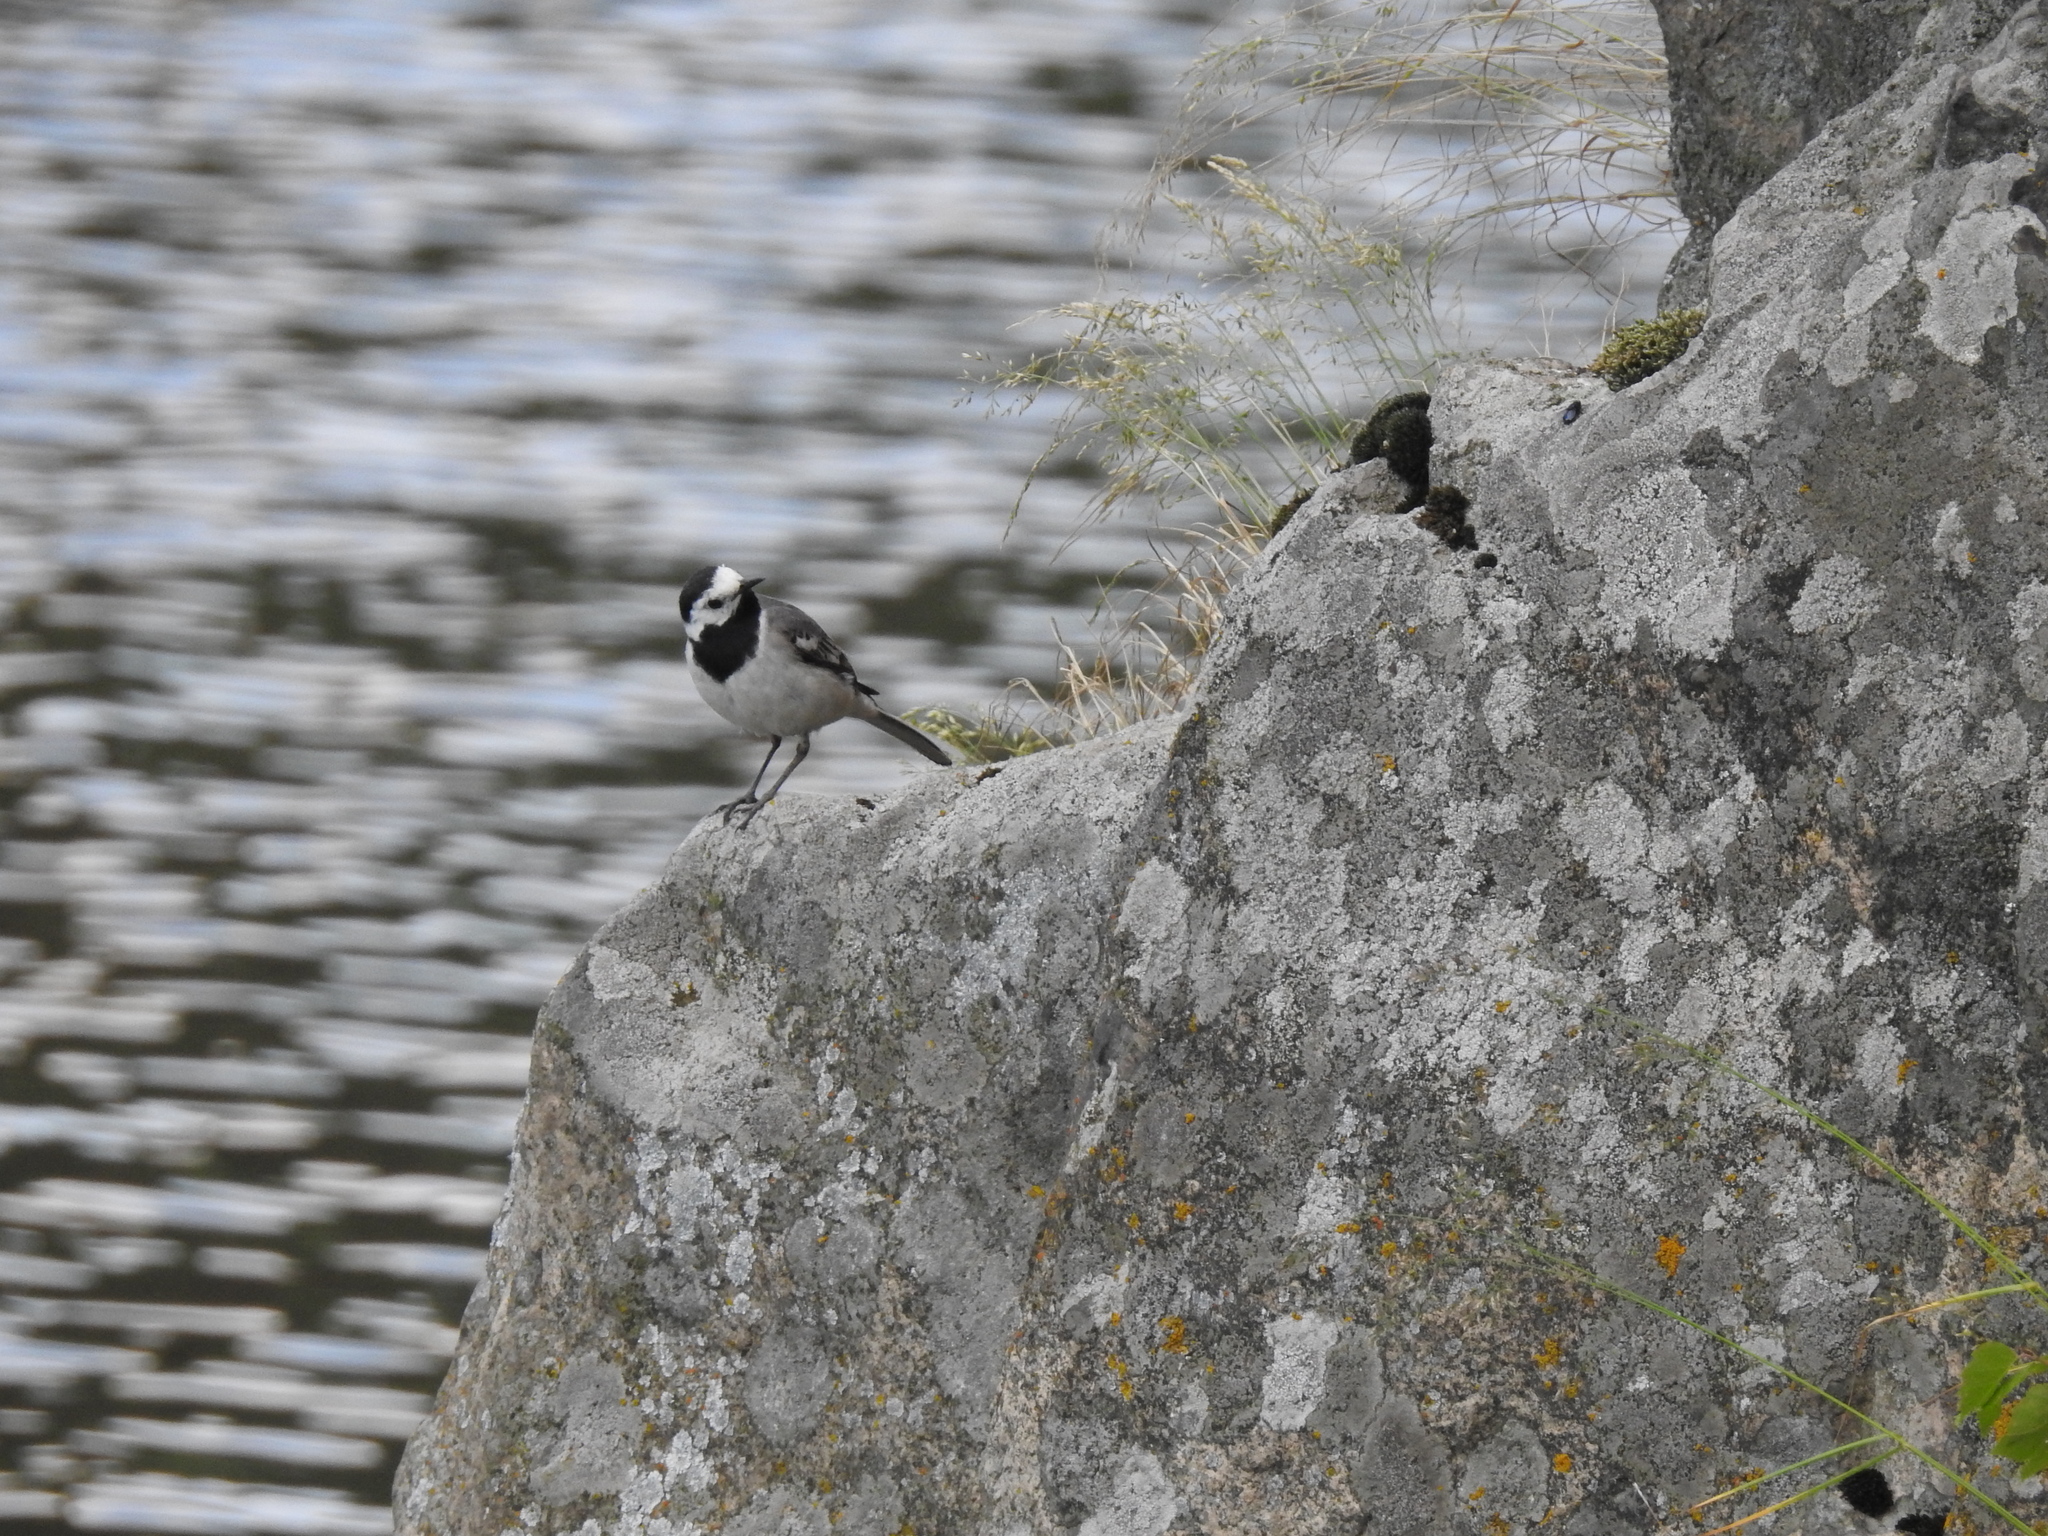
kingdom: Animalia
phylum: Chordata
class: Aves
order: Passeriformes
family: Motacillidae
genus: Motacilla
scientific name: Motacilla alba
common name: White wagtail
